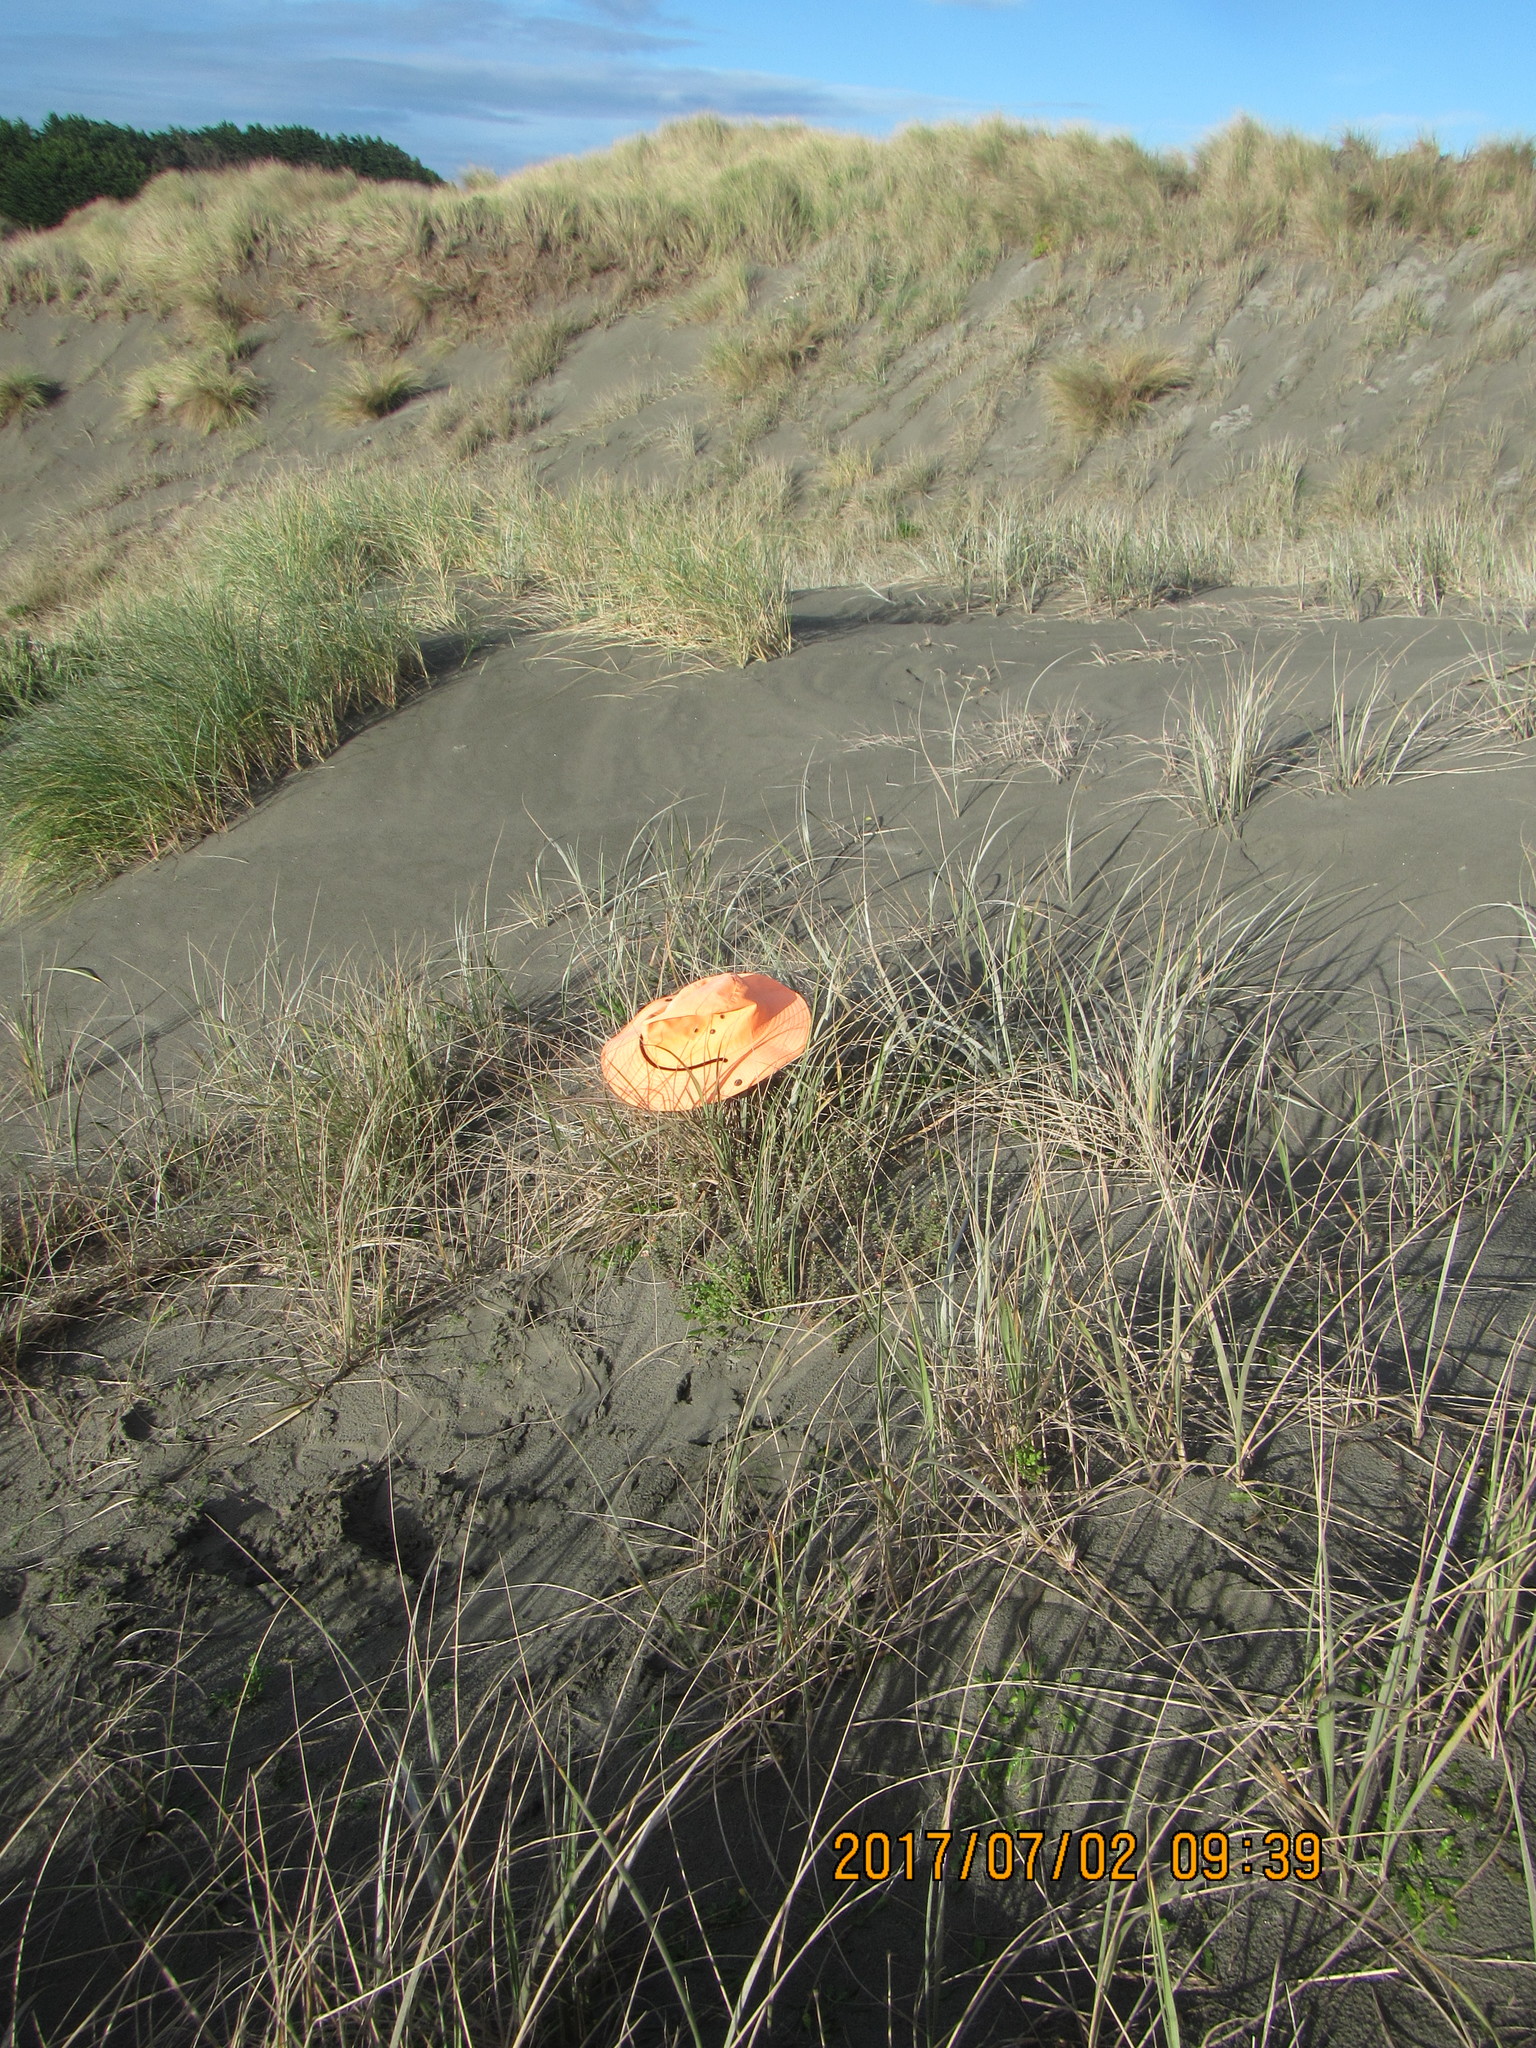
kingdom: Plantae
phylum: Tracheophyta
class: Magnoliopsida
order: Malvales
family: Thymelaeaceae
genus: Pimelea
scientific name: Pimelea villosa
